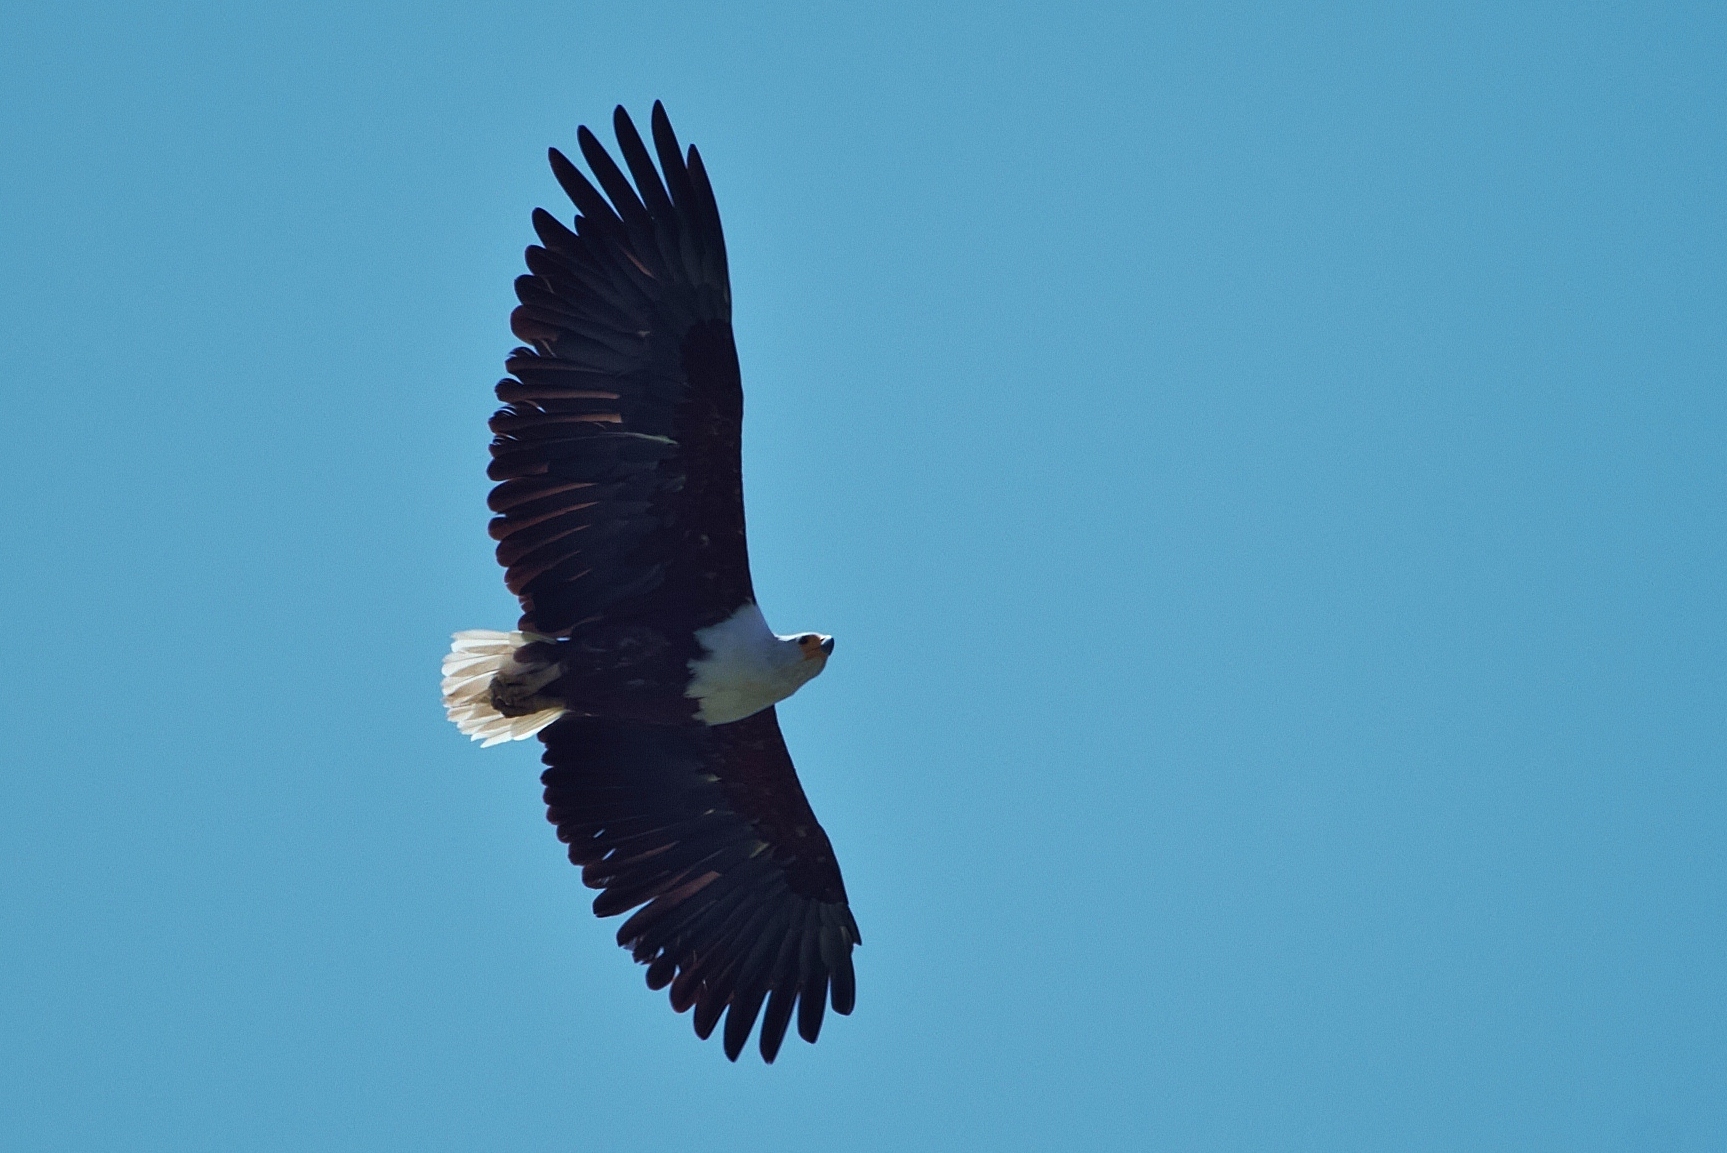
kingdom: Animalia
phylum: Chordata
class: Aves
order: Accipitriformes
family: Accipitridae
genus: Haliaeetus
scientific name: Haliaeetus vocifer
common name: African fish eagle
